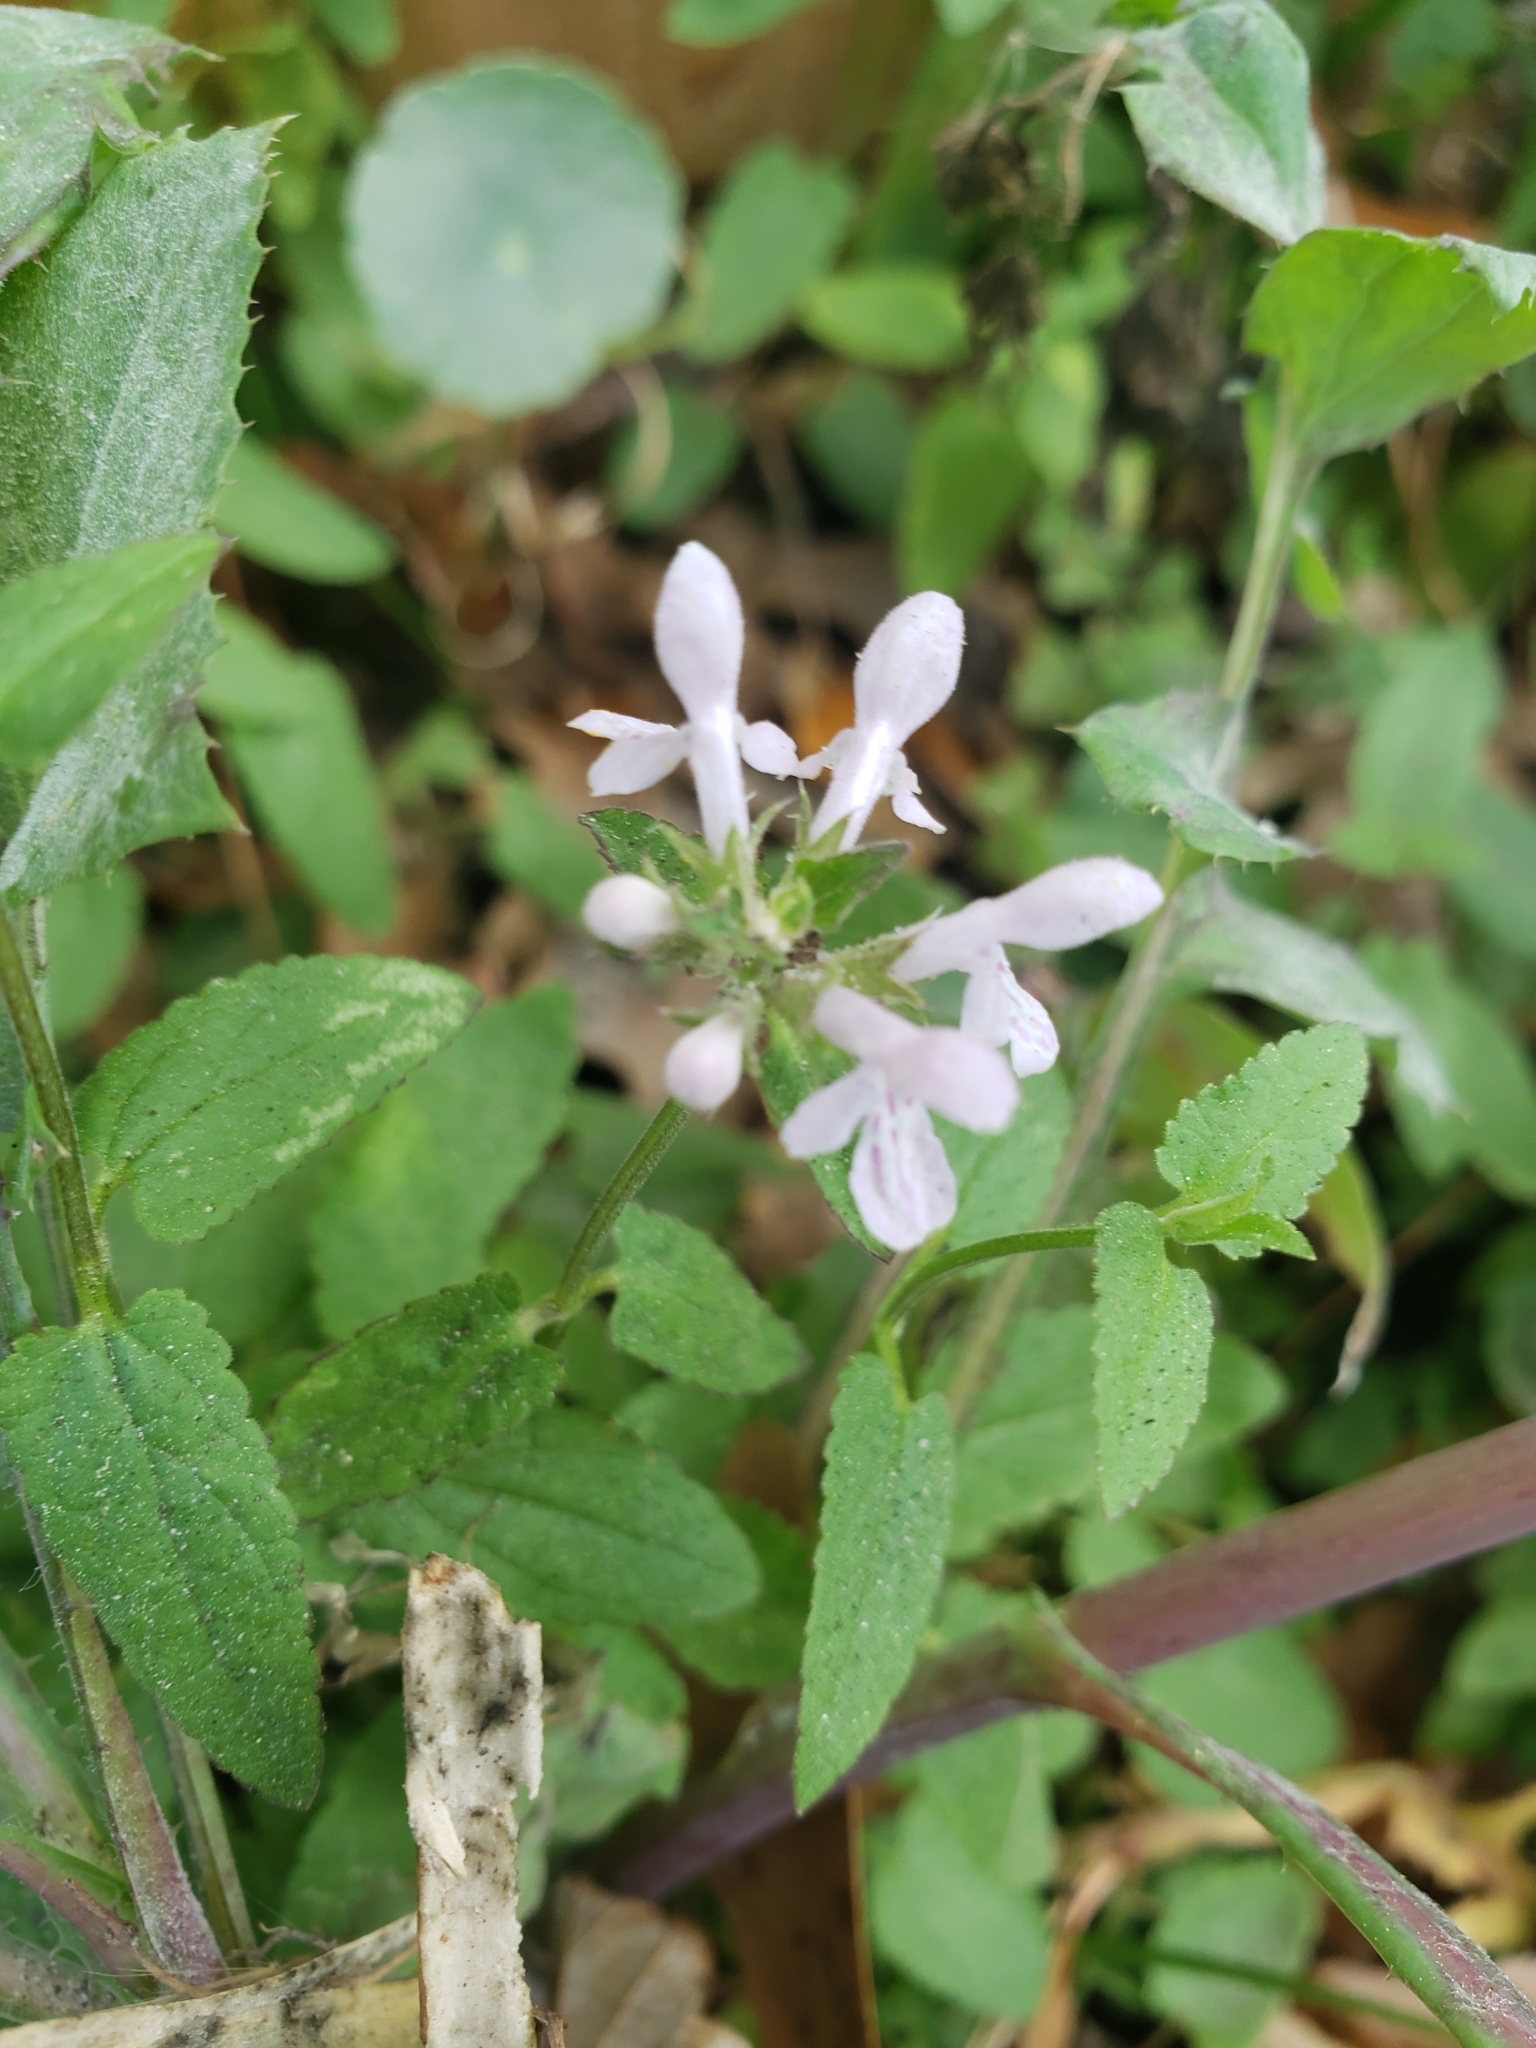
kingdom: Plantae
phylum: Tracheophyta
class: Magnoliopsida
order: Lamiales
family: Lamiaceae
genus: Stachys
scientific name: Stachys floridana
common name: Florida betony
